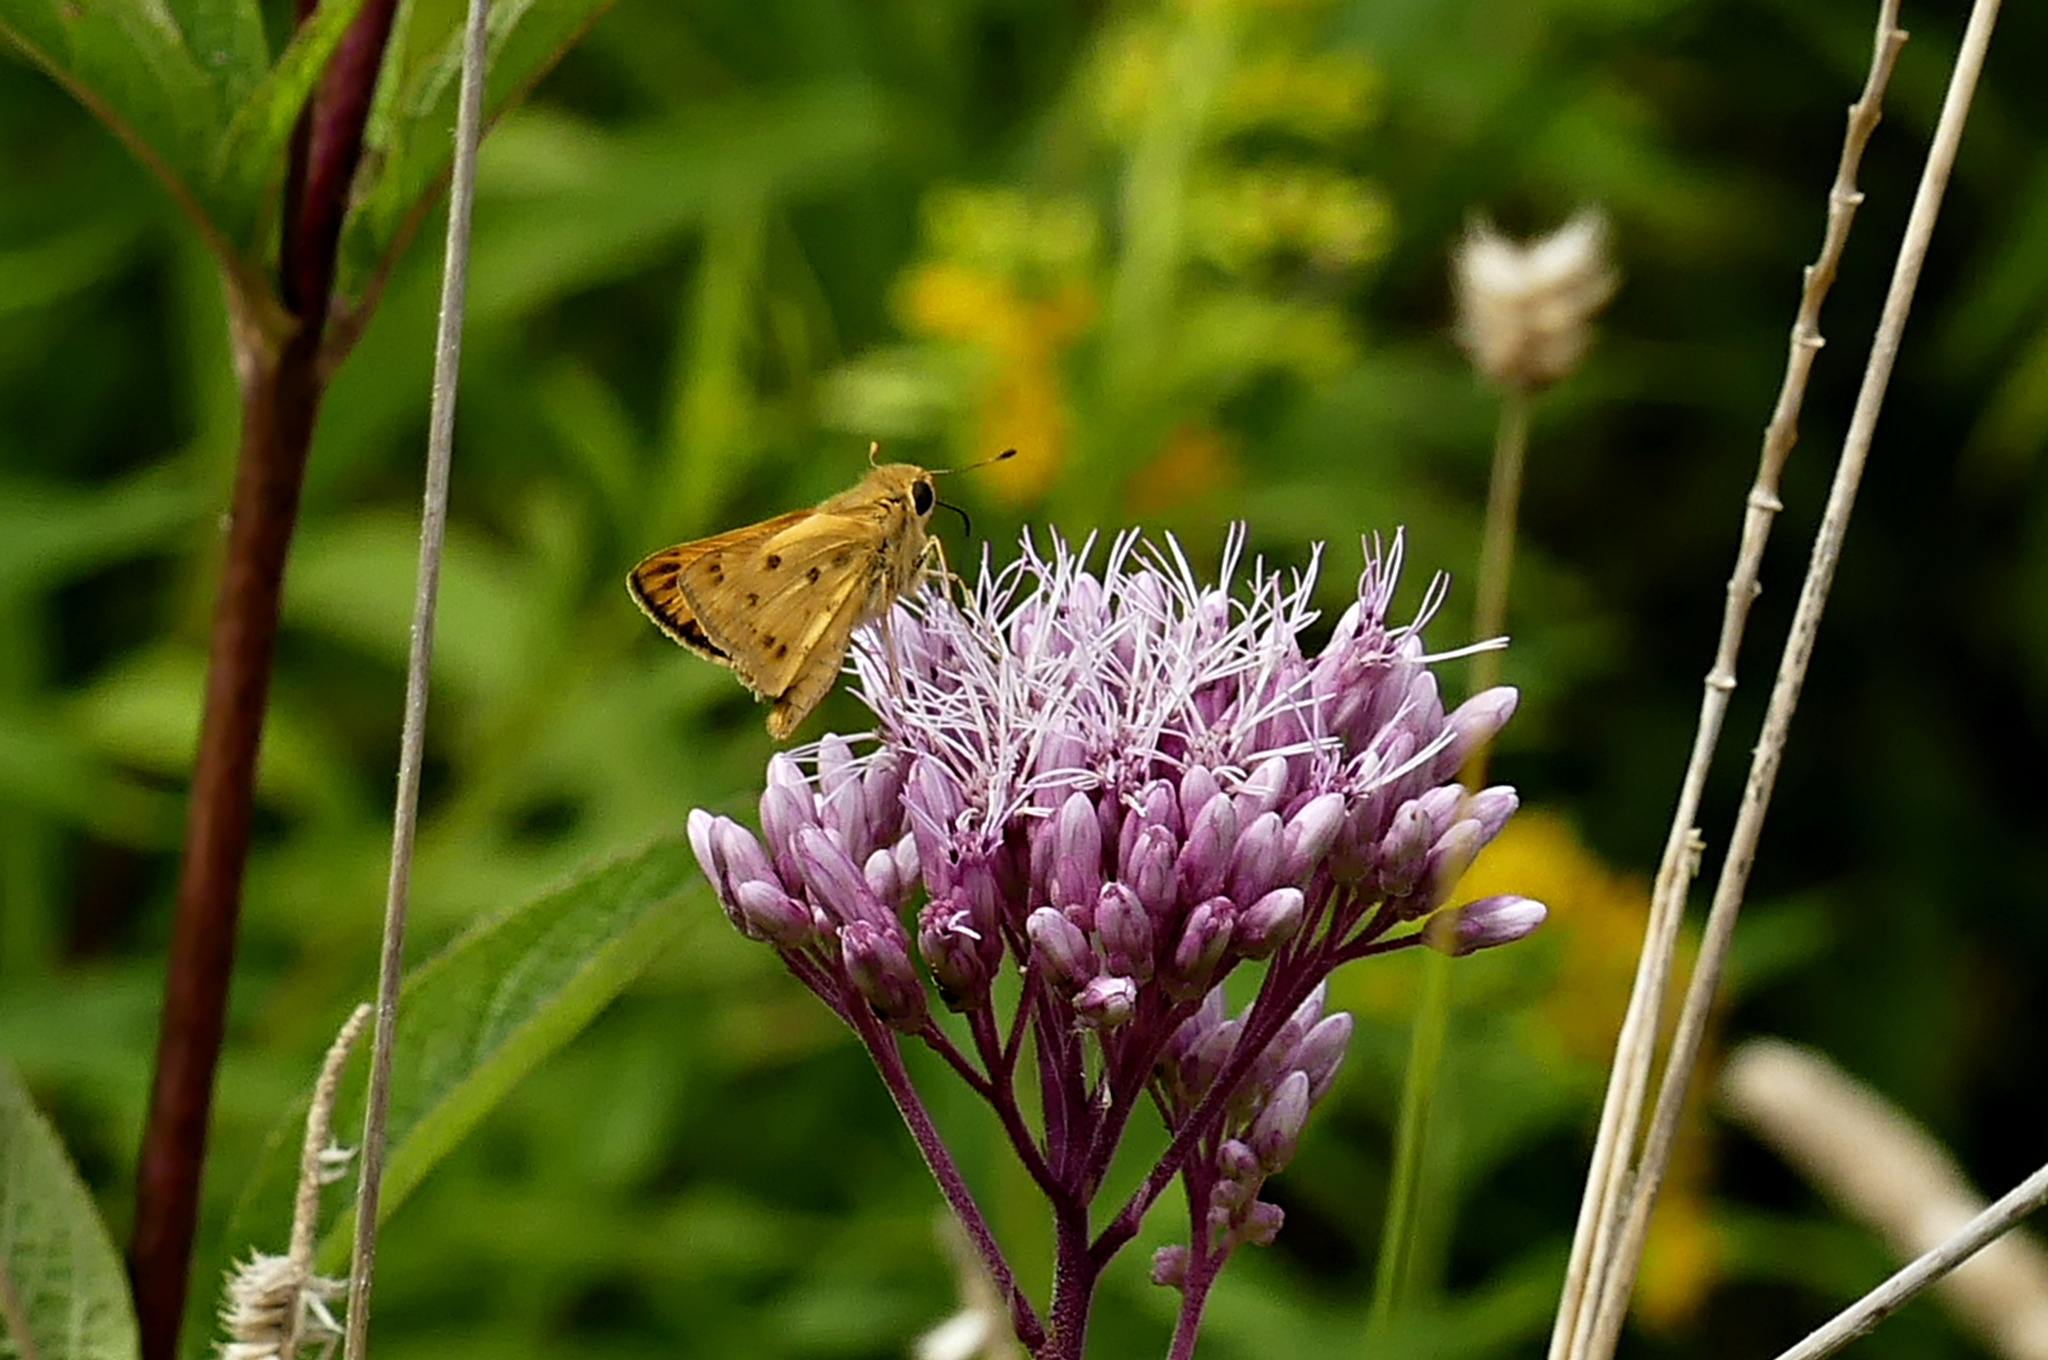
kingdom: Animalia
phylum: Arthropoda
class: Insecta
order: Lepidoptera
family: Hesperiidae
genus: Hylephila
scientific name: Hylephila phyleus
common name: Fiery skipper
